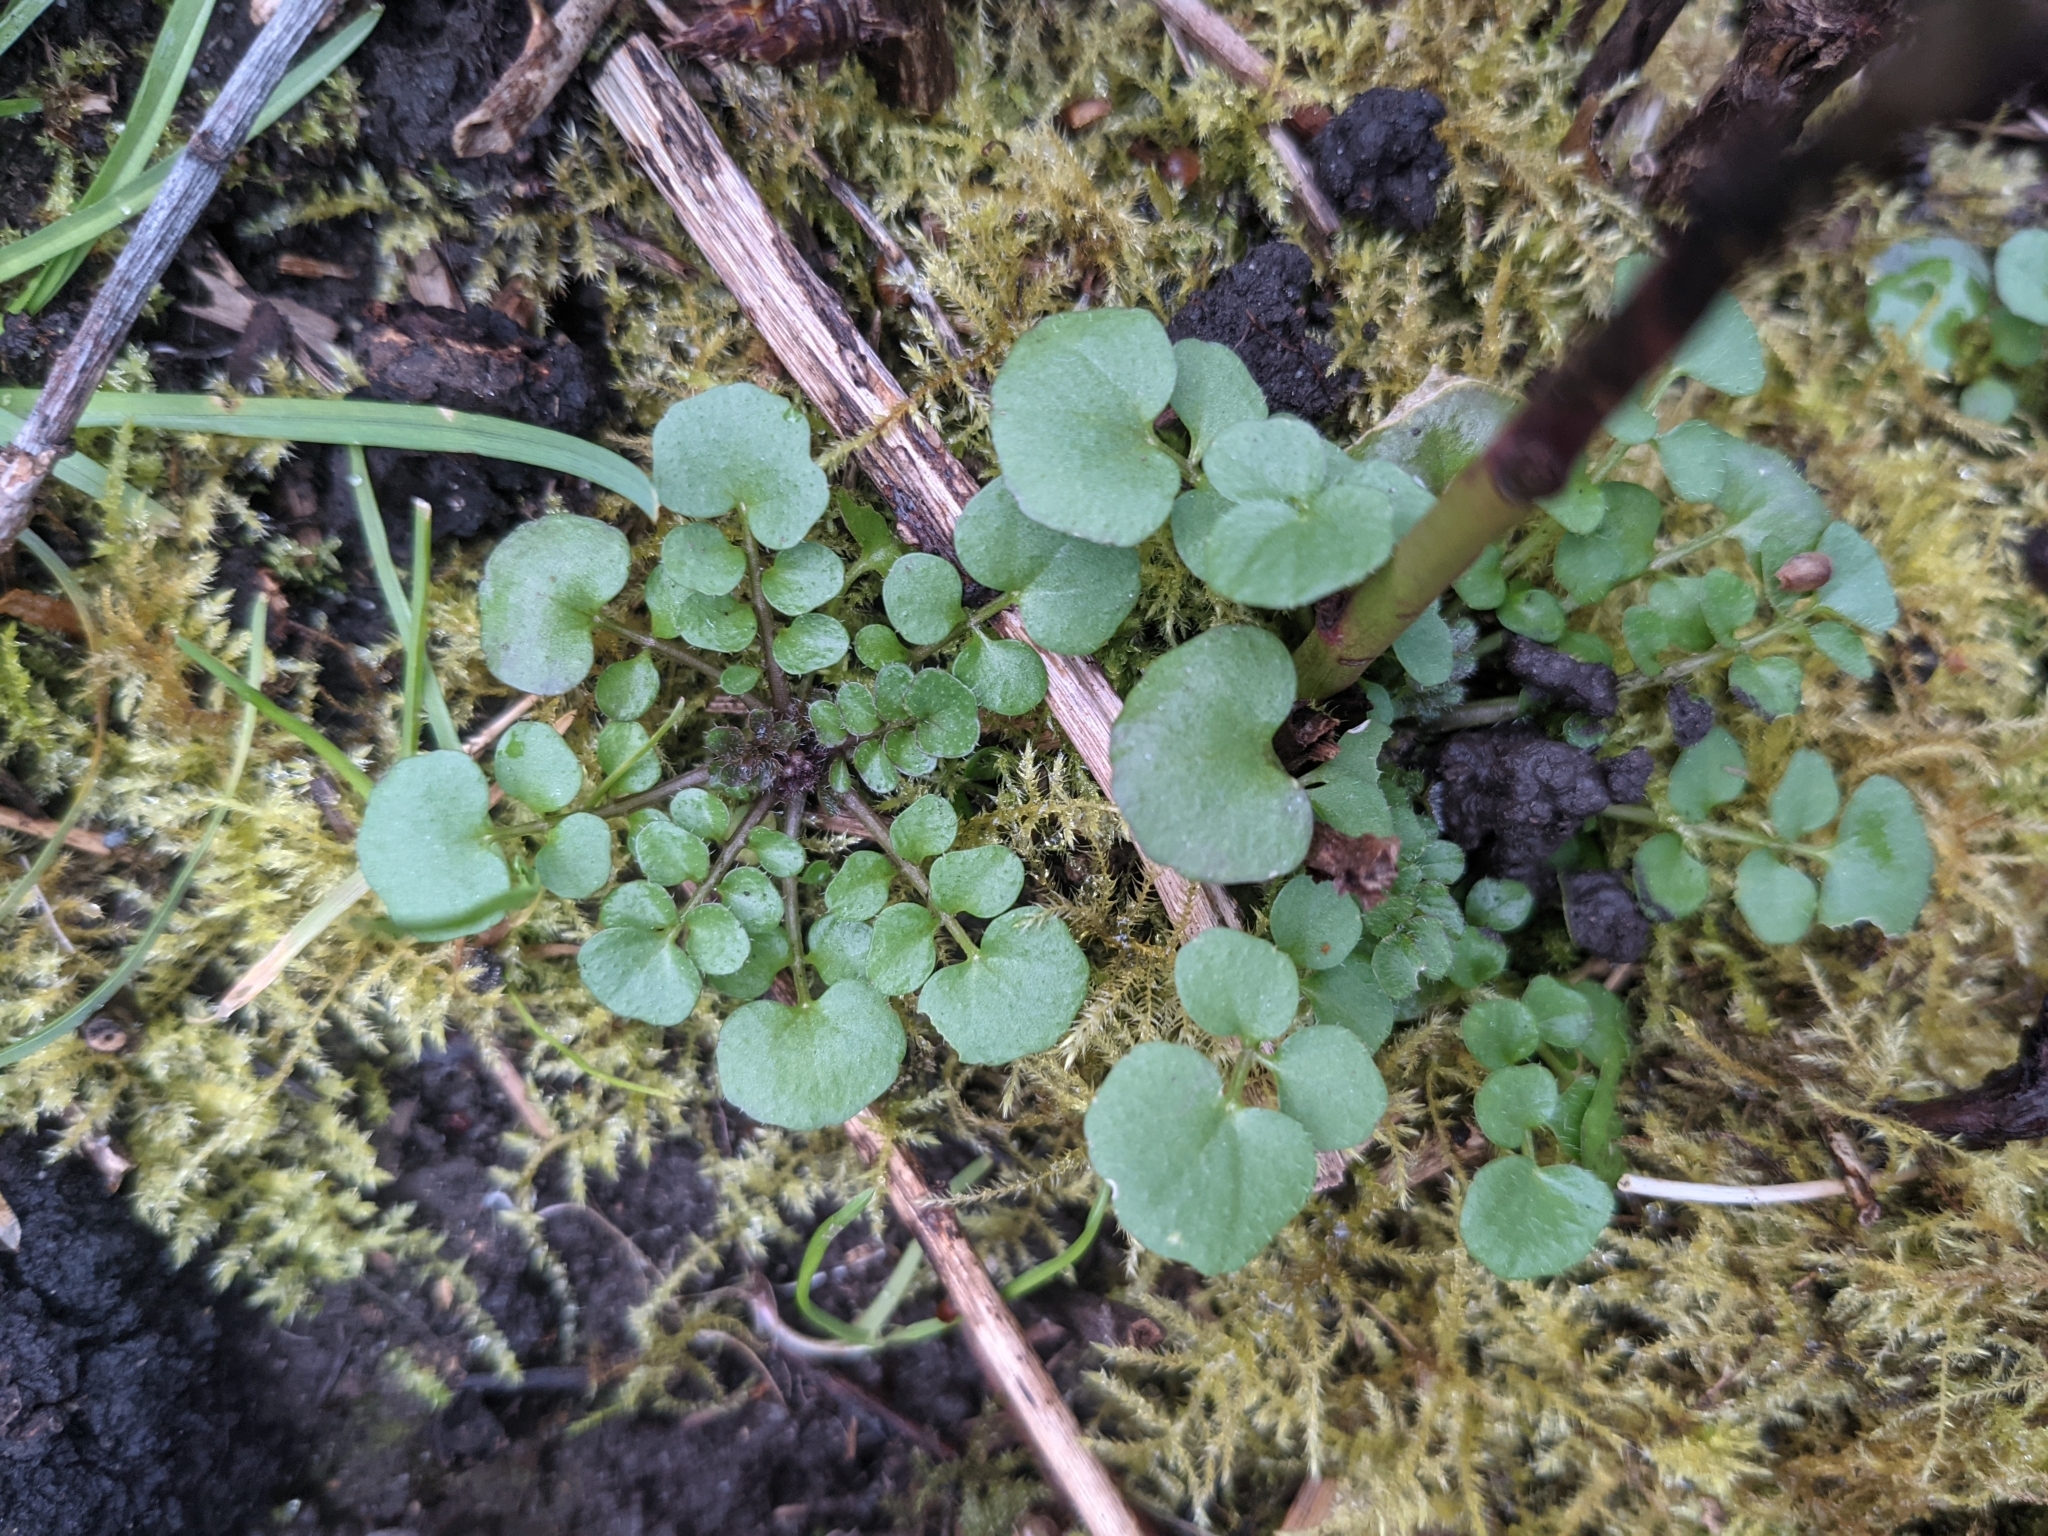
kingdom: Plantae
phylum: Tracheophyta
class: Magnoliopsida
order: Brassicales
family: Brassicaceae
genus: Cardamine
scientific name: Cardamine hirsuta
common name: Hairy bittercress
